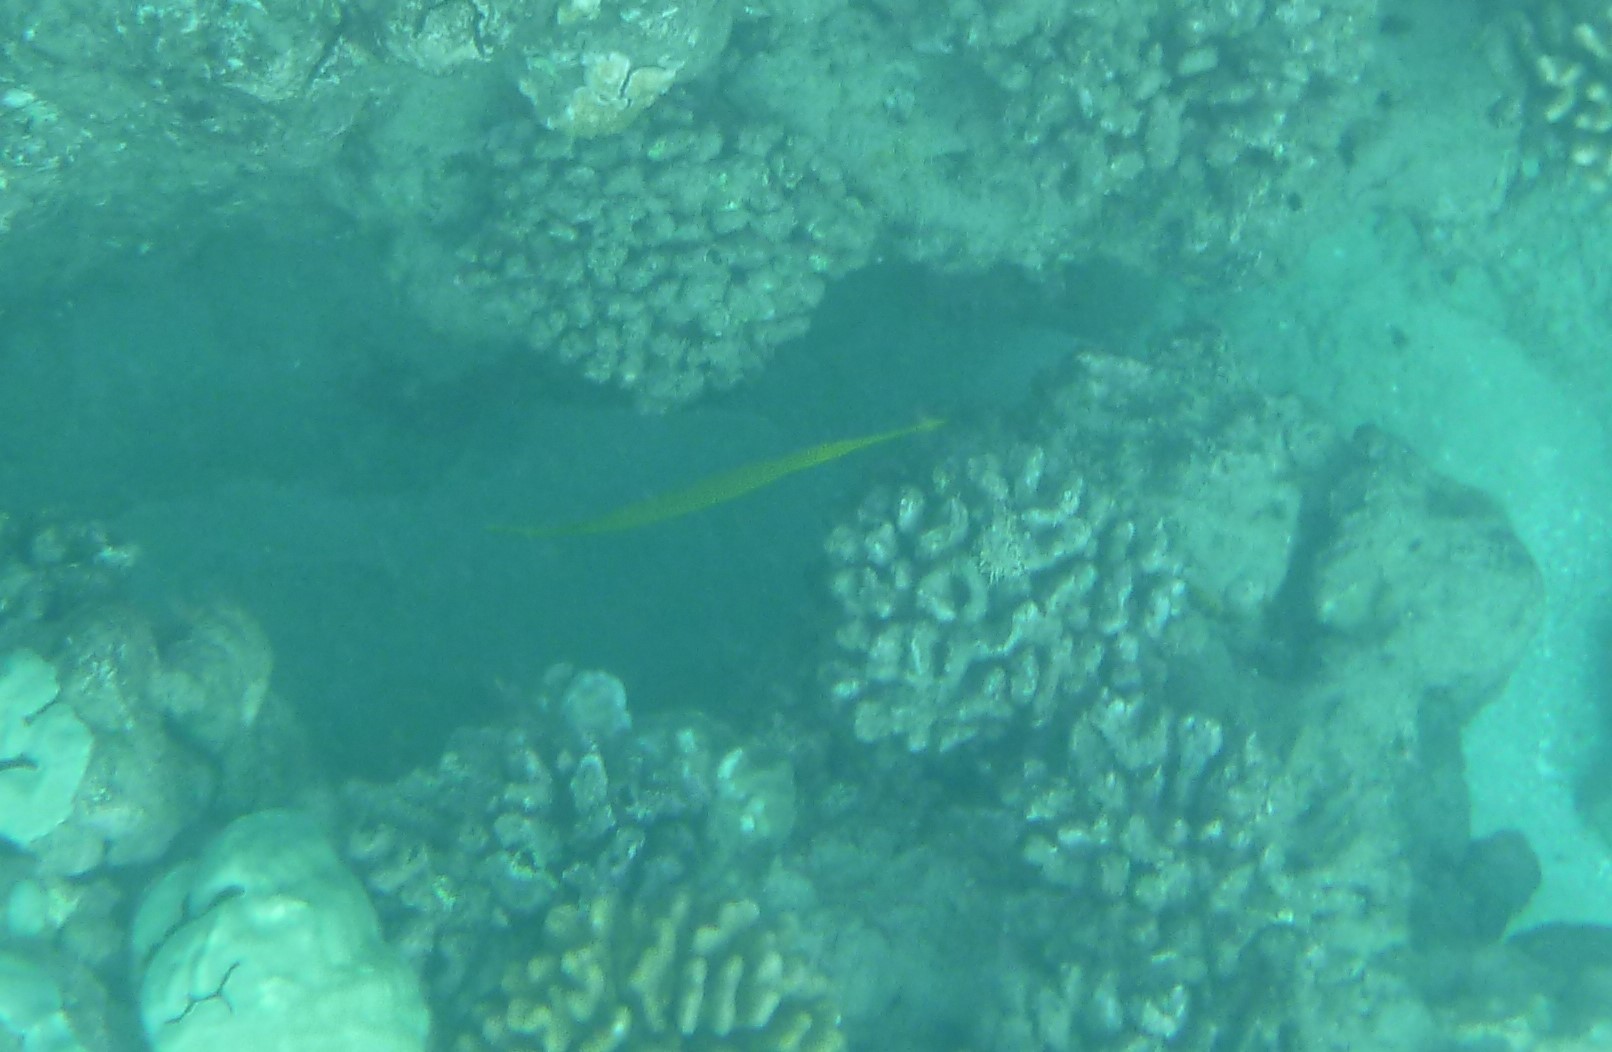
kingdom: Animalia
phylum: Chordata
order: Syngnathiformes
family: Aulostomidae
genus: Aulostomus
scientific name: Aulostomus chinensis
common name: Chinese trumpetfish
